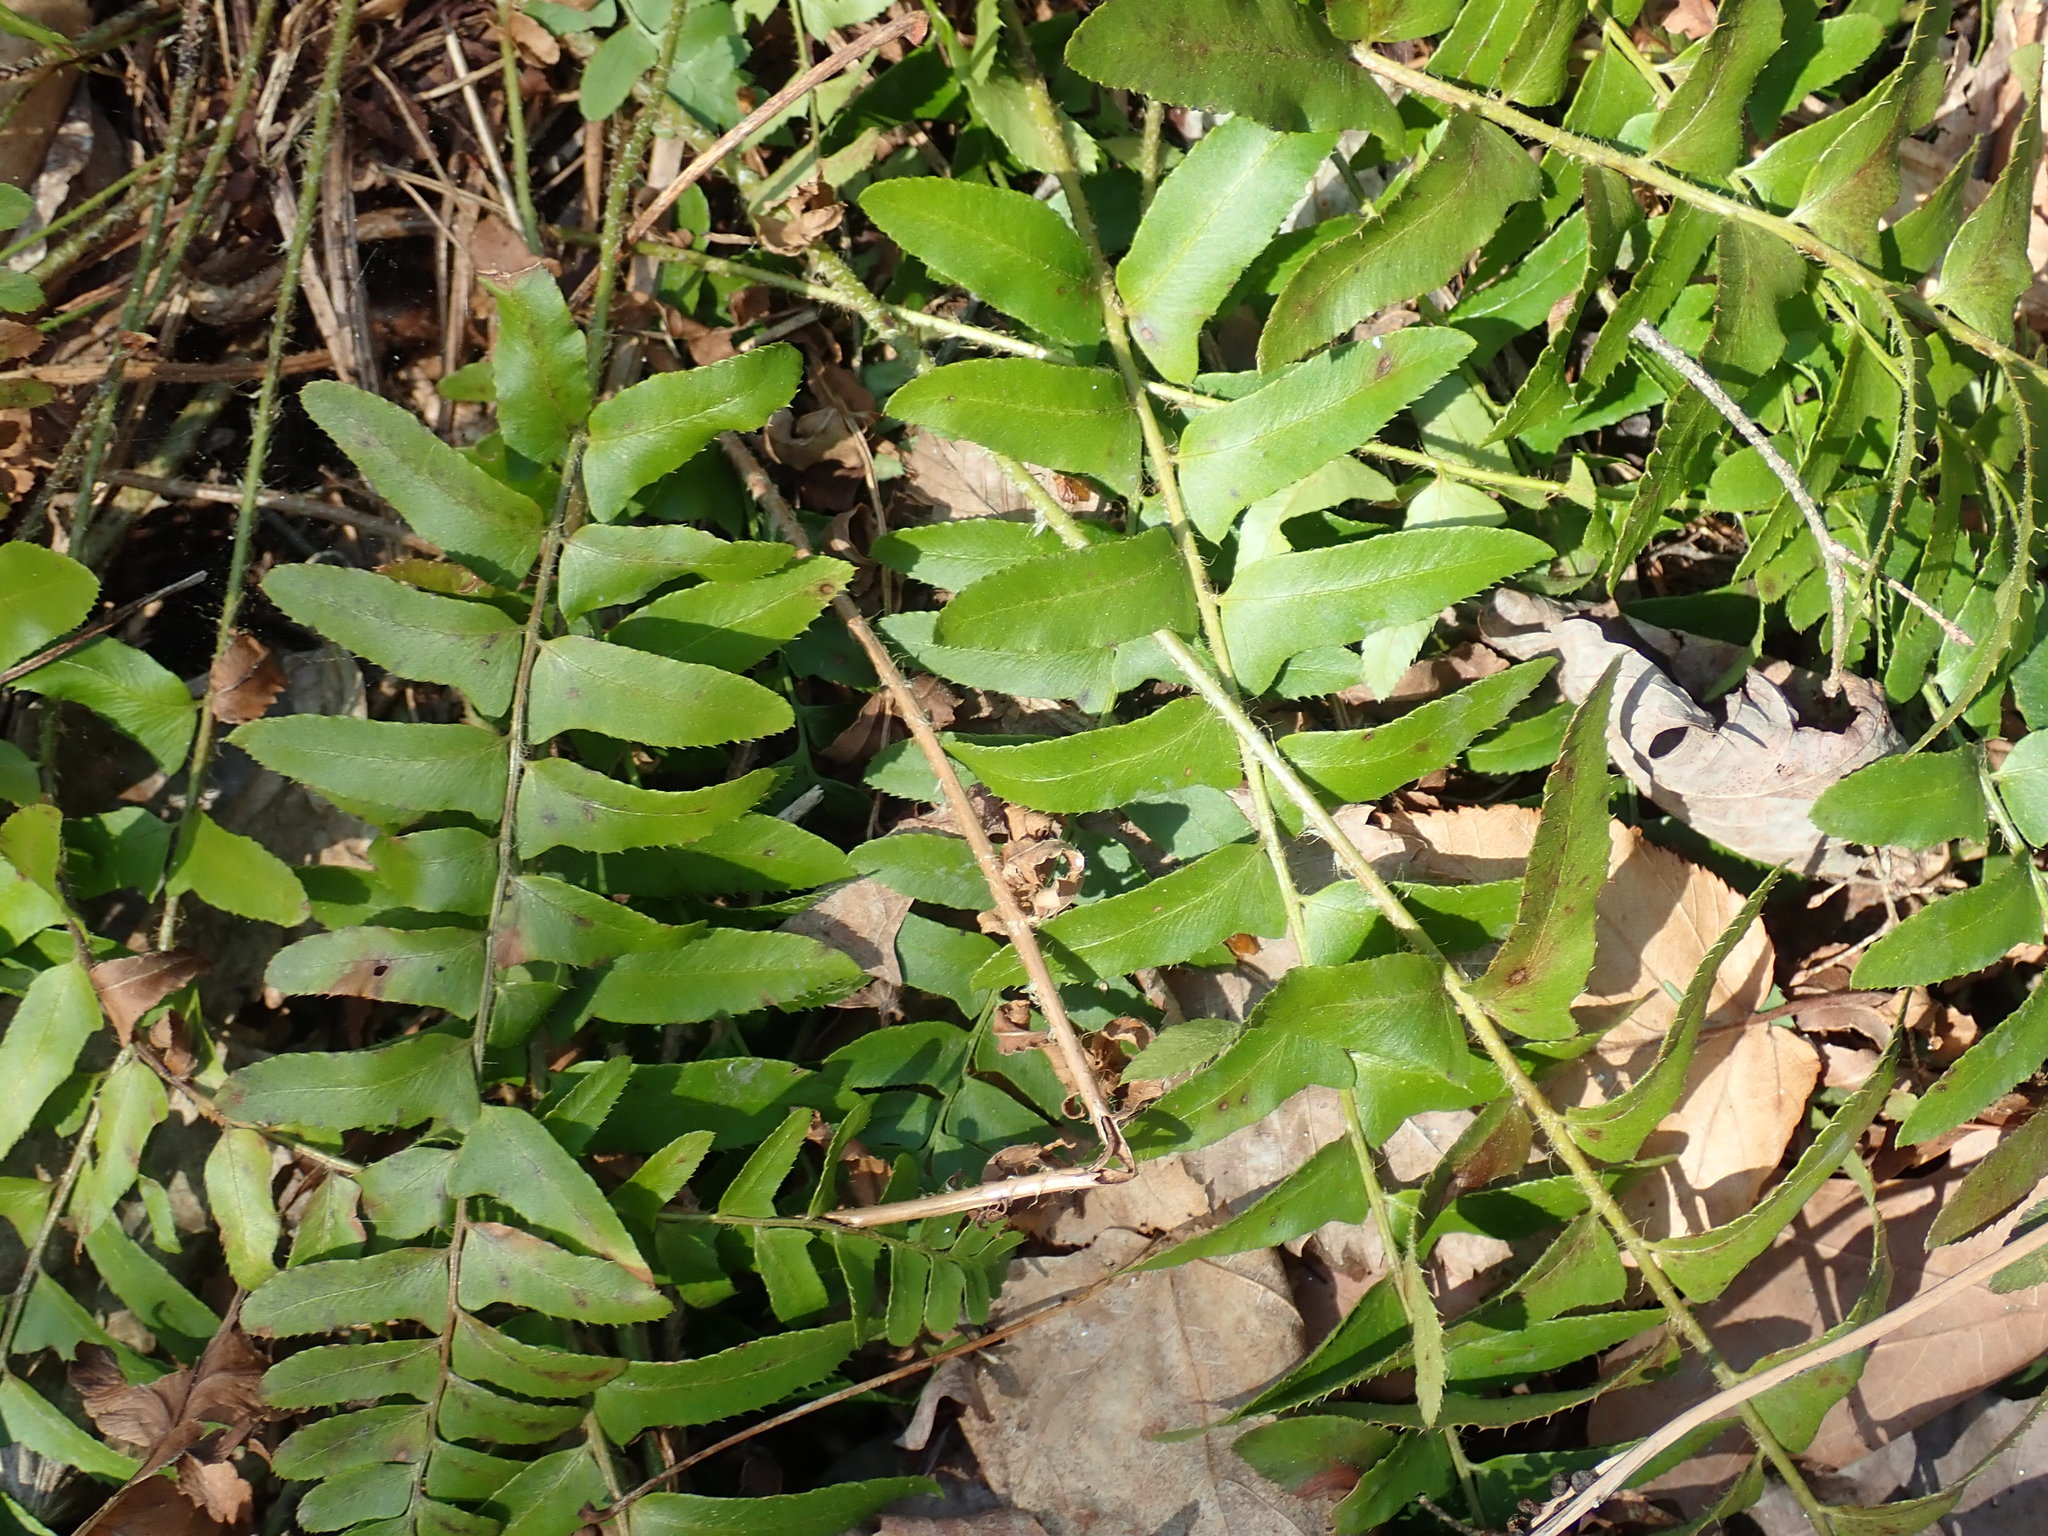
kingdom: Plantae
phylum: Tracheophyta
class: Polypodiopsida
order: Polypodiales
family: Dryopteridaceae
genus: Polystichum
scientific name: Polystichum acrostichoides
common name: Christmas fern
